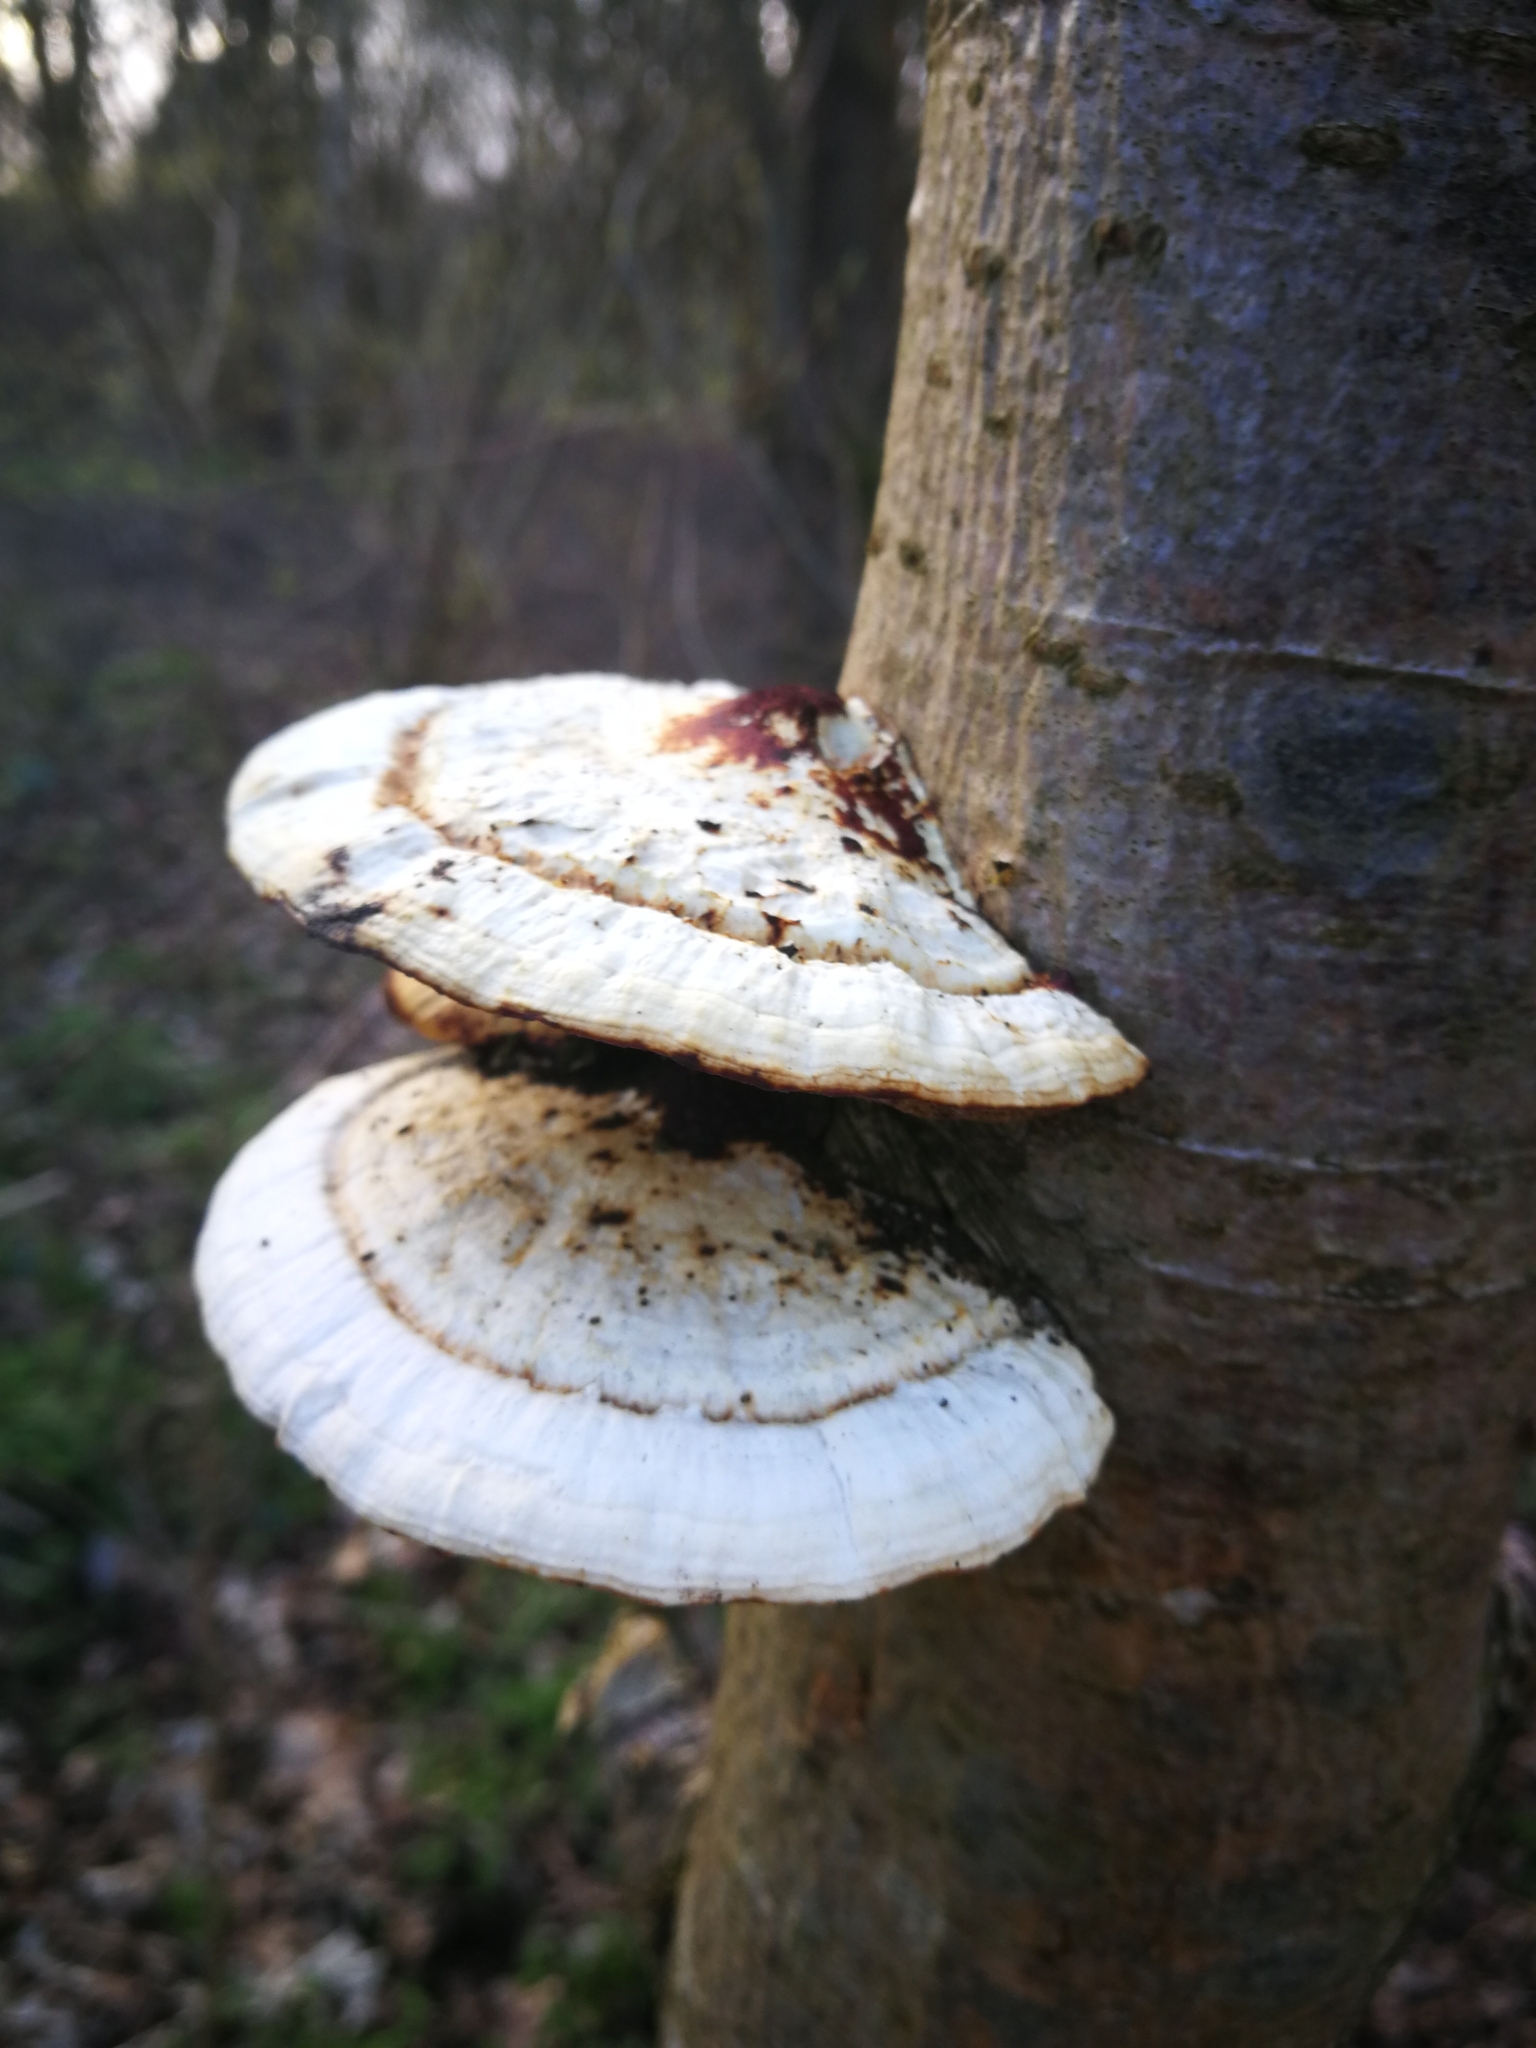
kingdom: Fungi
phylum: Basidiomycota
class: Agaricomycetes
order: Polyporales
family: Polyporaceae
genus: Daedaleopsis
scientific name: Daedaleopsis confragosa
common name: Blushing bracket
